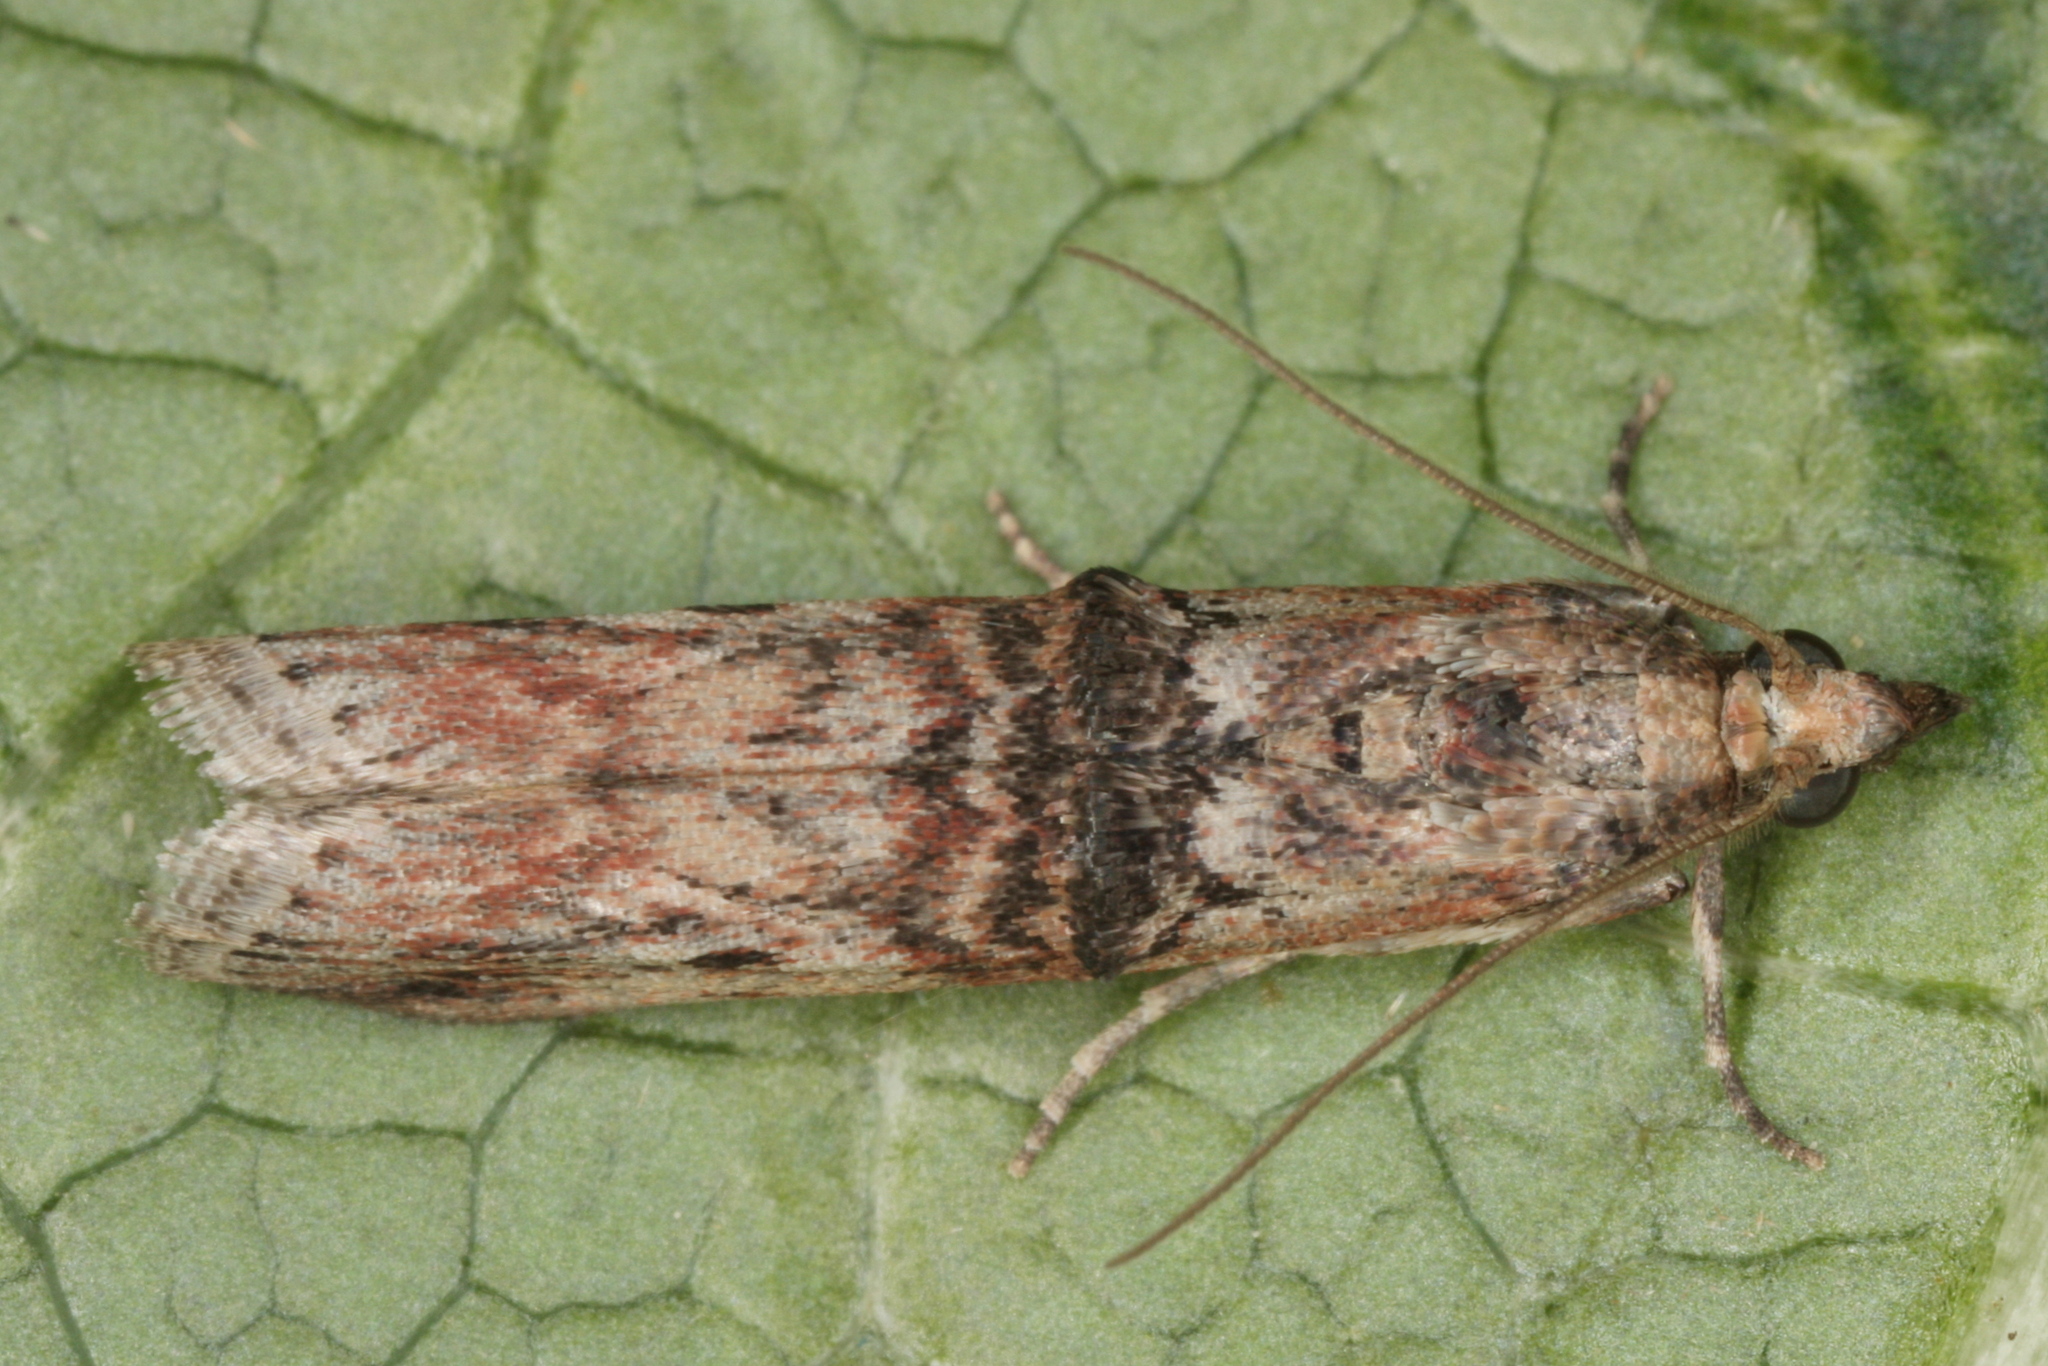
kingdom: Animalia
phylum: Arthropoda
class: Insecta
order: Lepidoptera
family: Pyralidae
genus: Nephopterix
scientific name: Nephopterix angustella
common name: Spindle knot-horn
